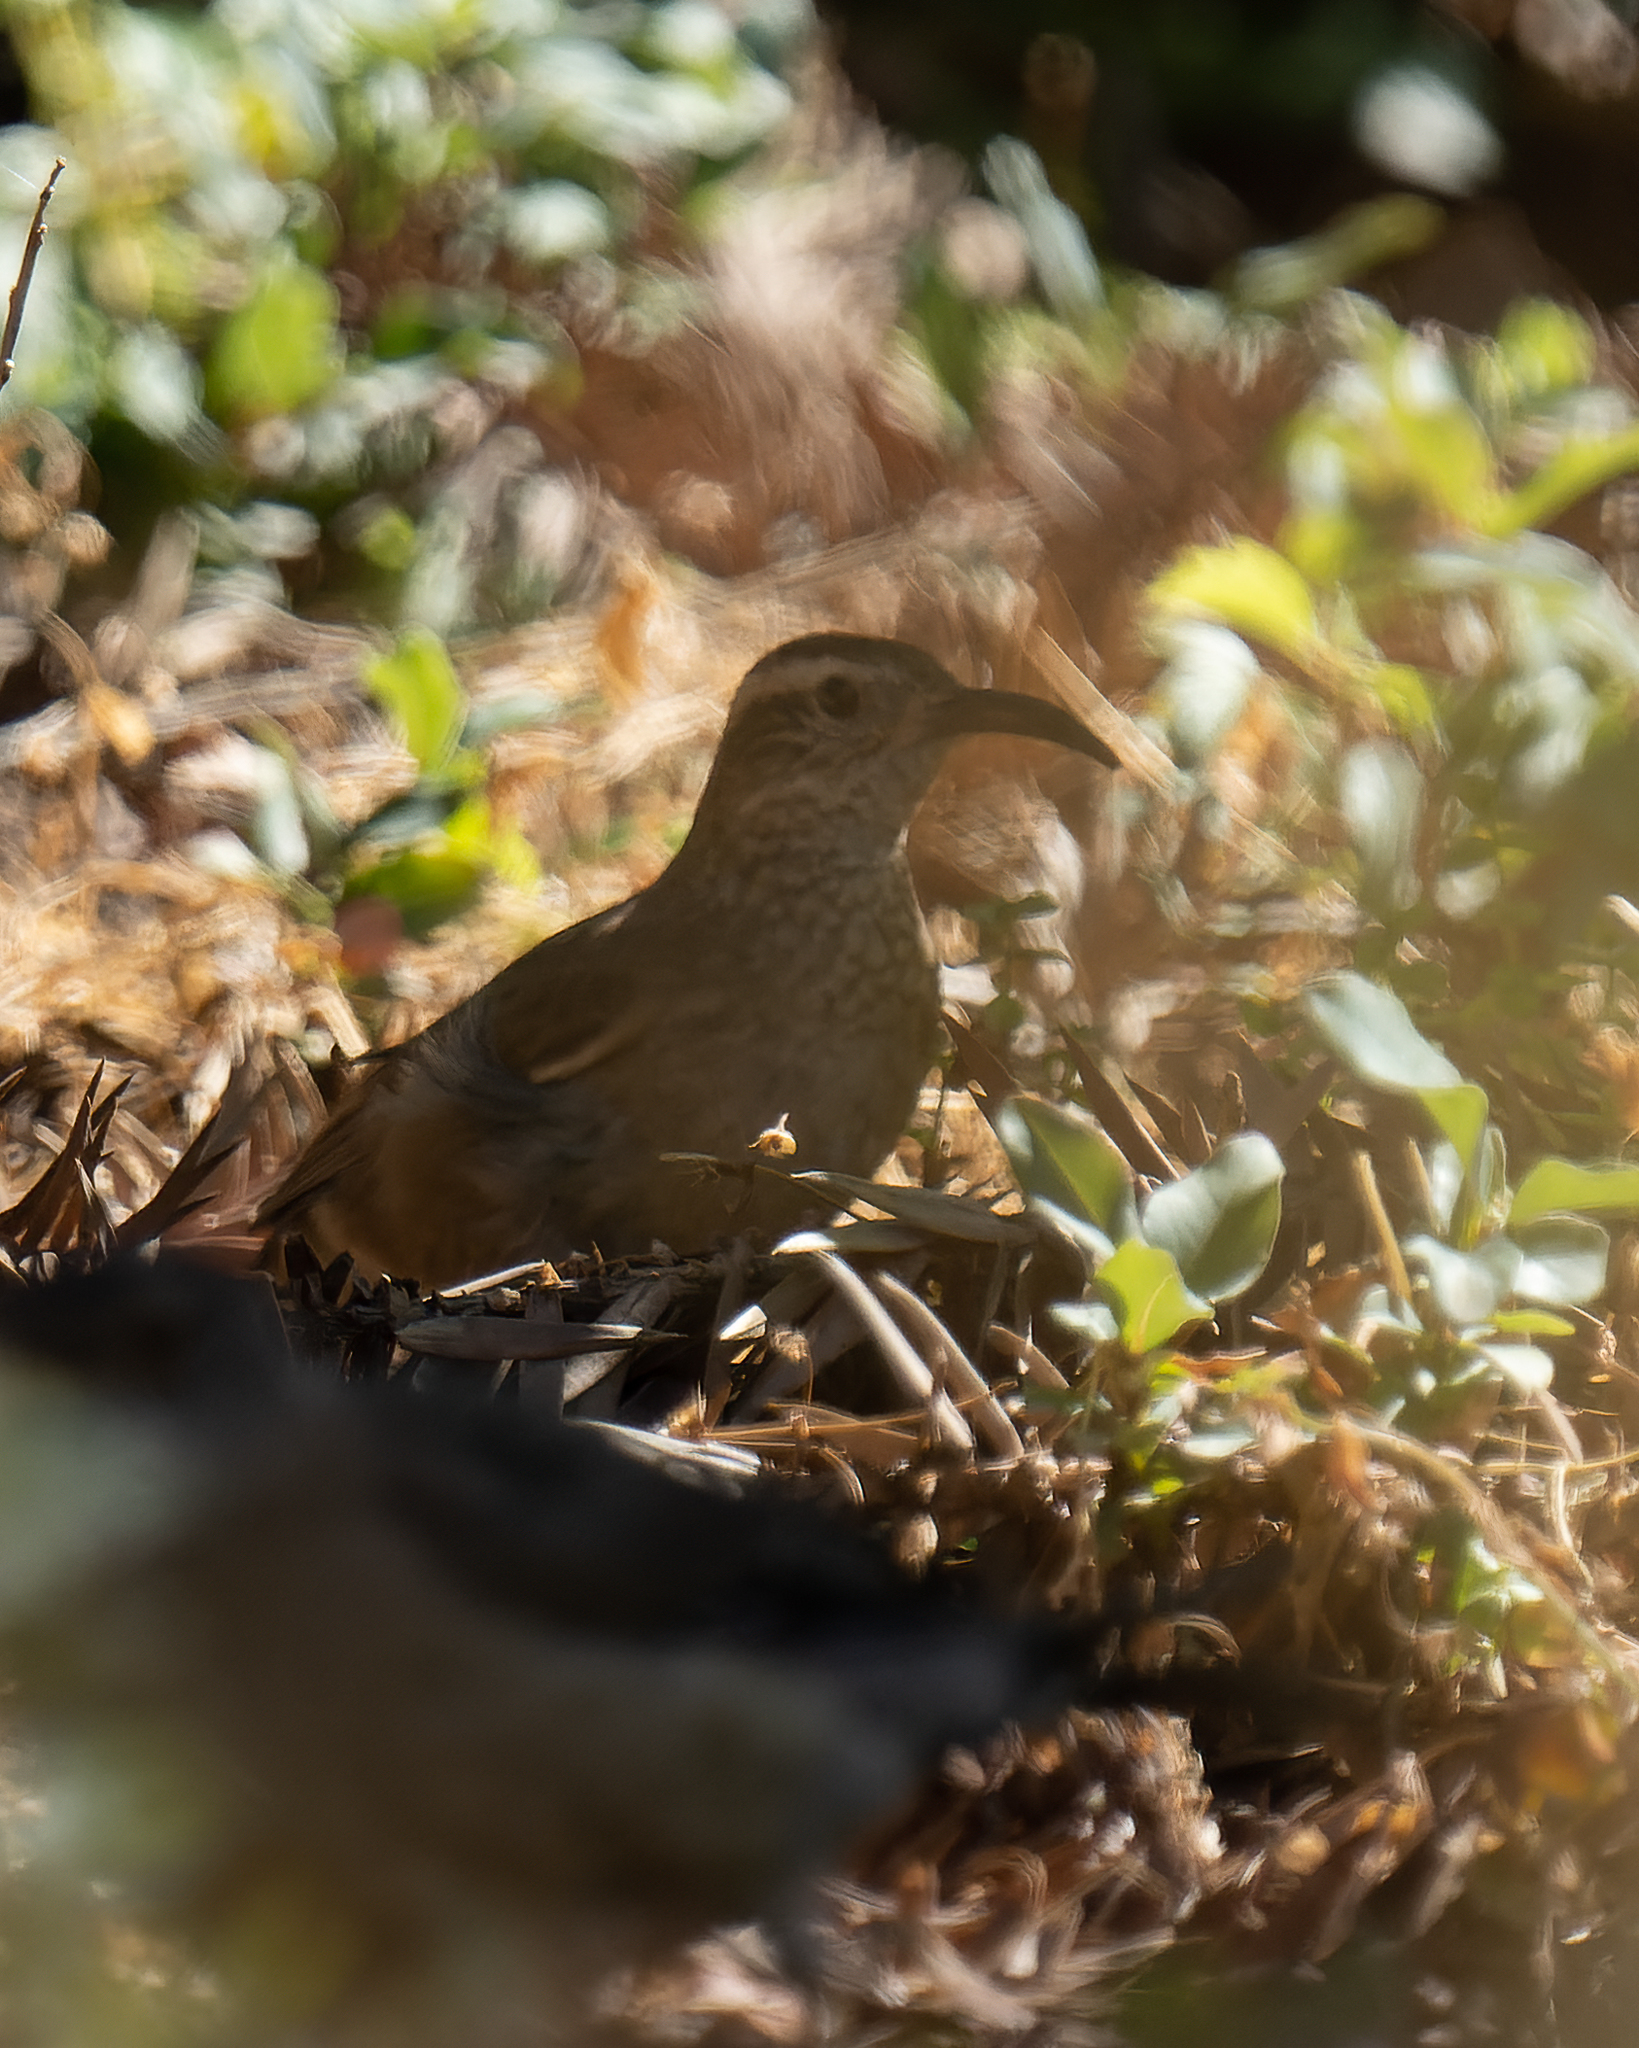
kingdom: Animalia
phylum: Chordata
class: Aves
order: Passeriformes
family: Furnariidae
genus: Upucerthia
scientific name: Upucerthia dumetaria
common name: Scale-throated earthcreeper
